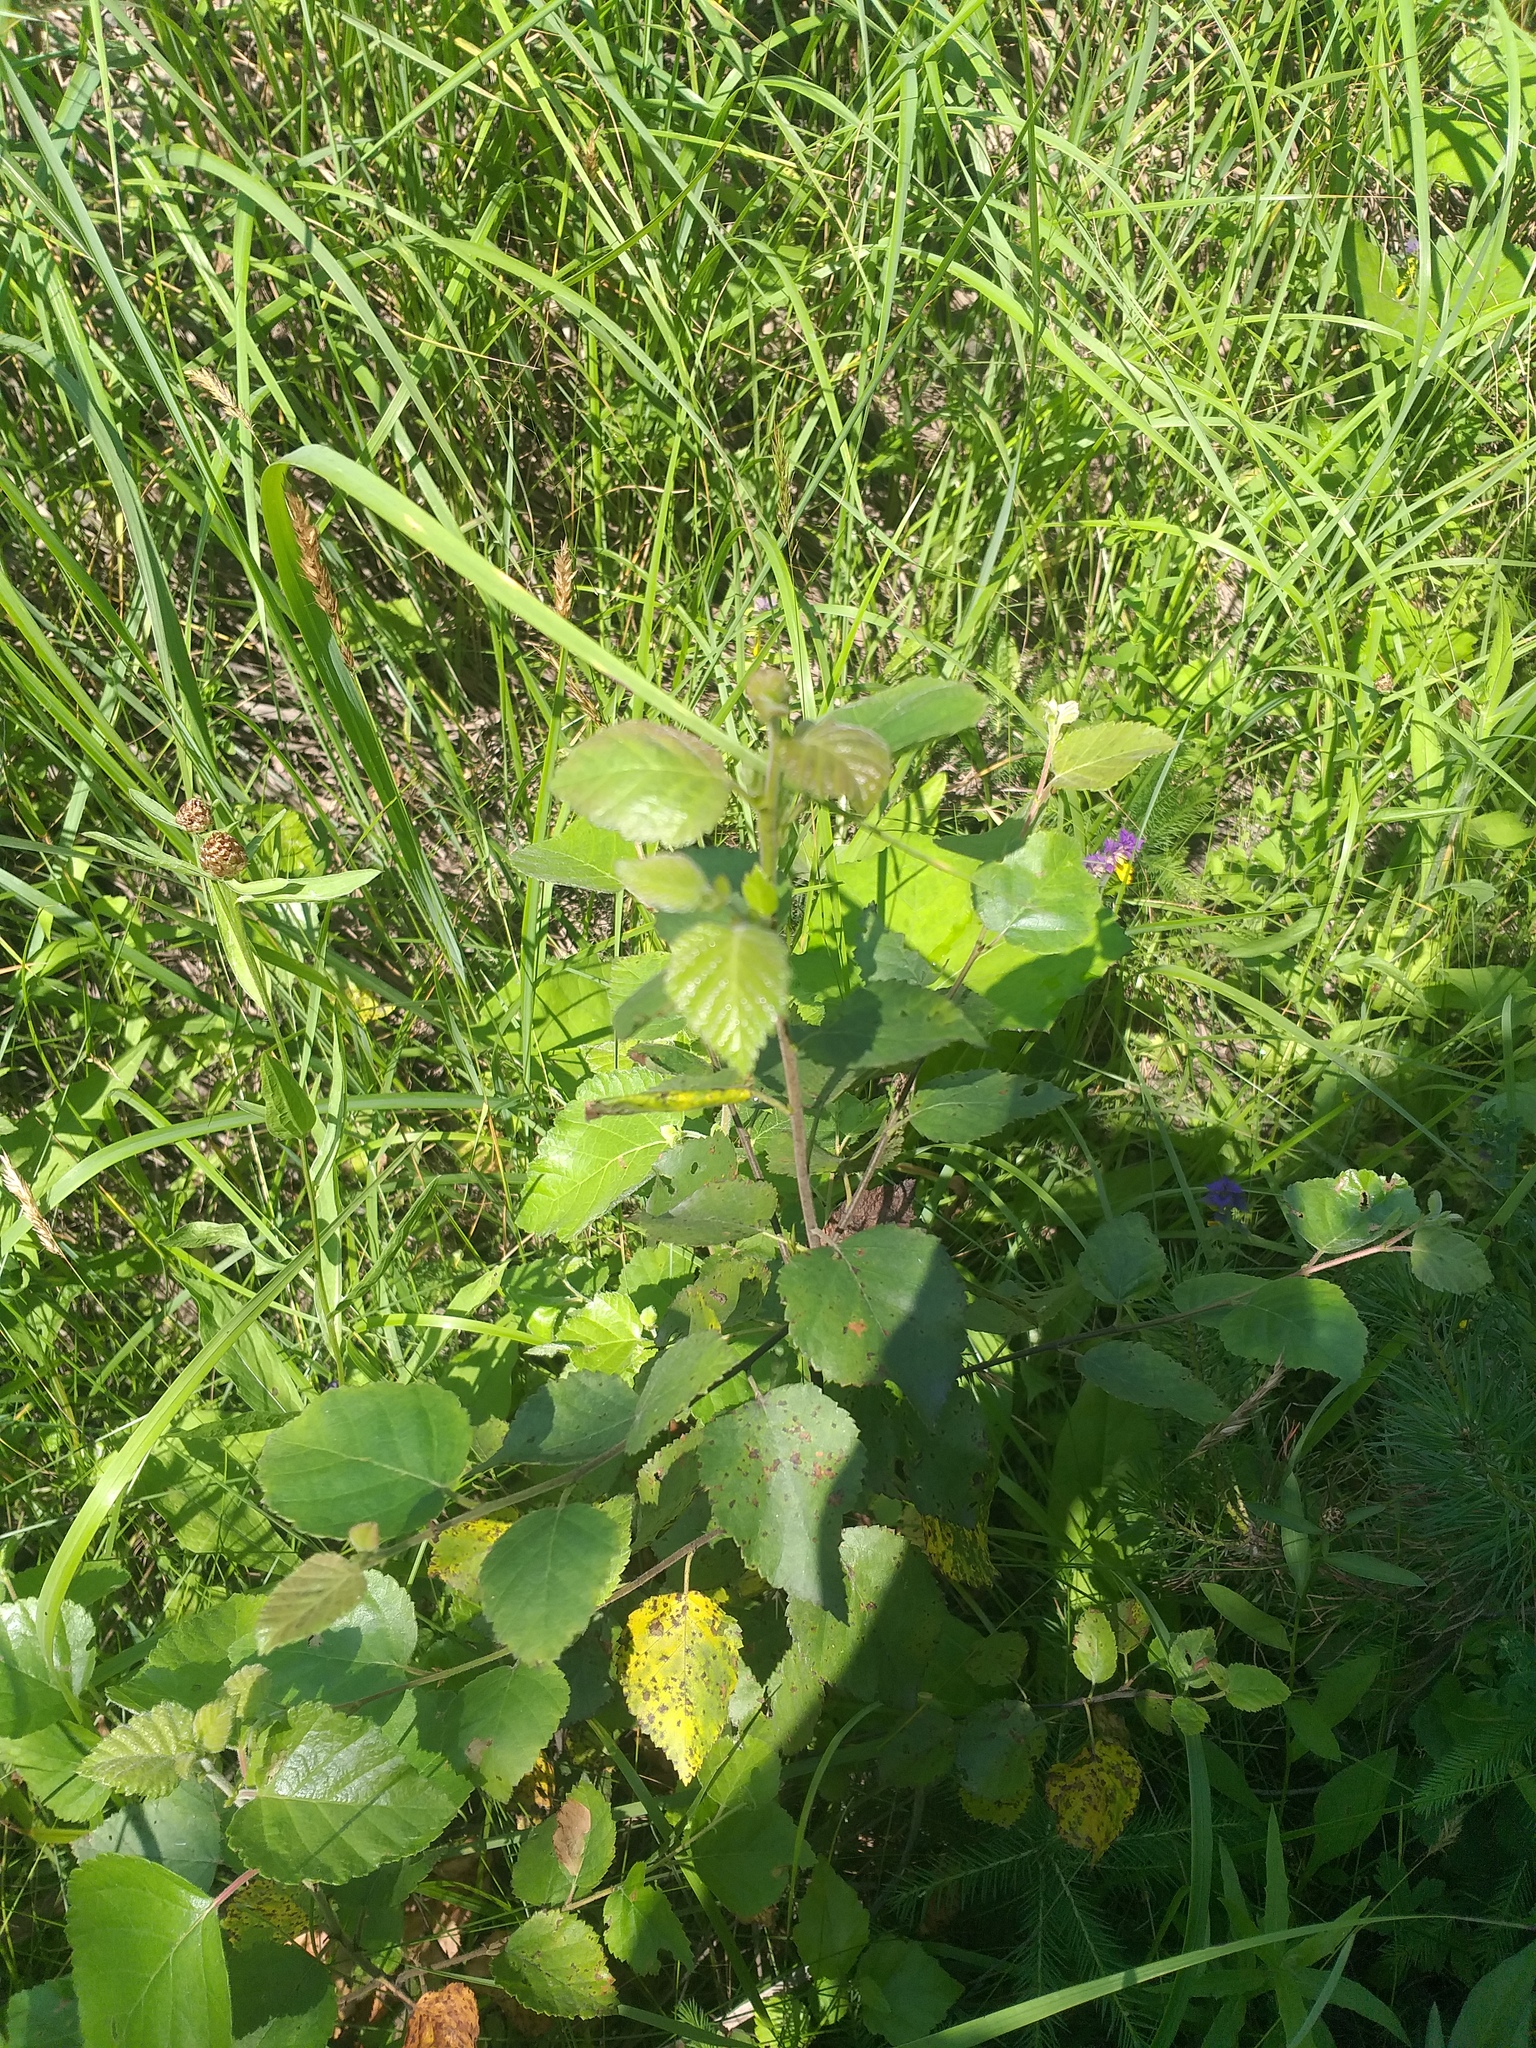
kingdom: Plantae
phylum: Tracheophyta
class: Magnoliopsida
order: Fagales
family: Betulaceae
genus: Betula
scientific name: Betula pubescens
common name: Downy birch
